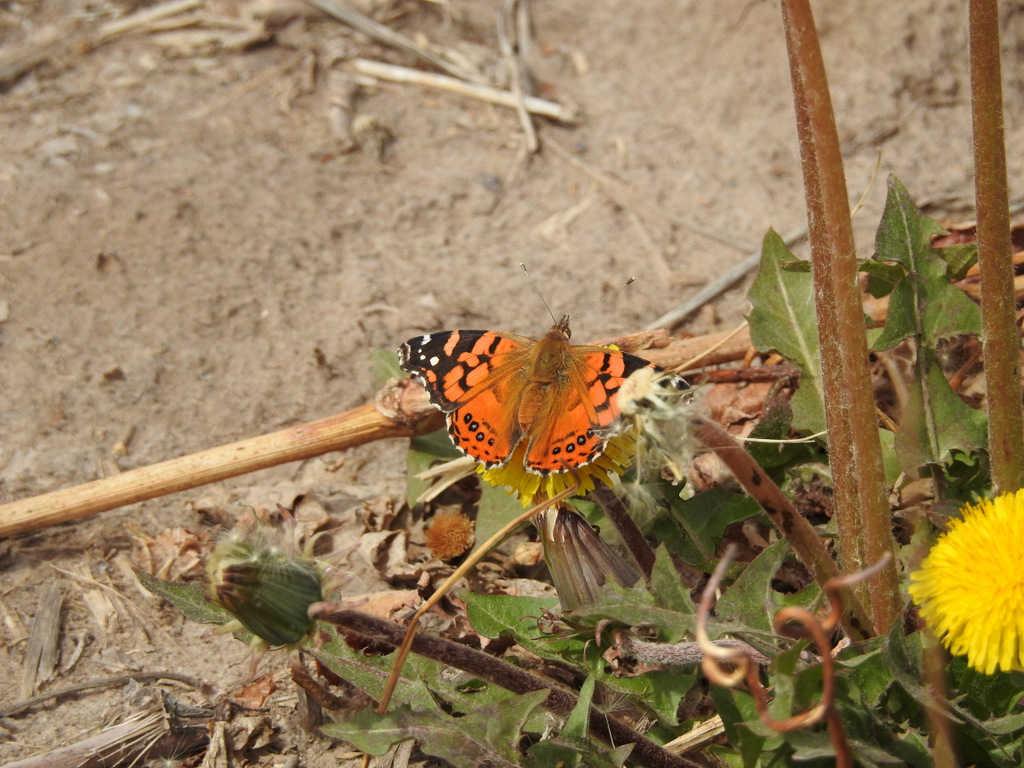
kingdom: Animalia
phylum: Arthropoda
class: Insecta
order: Lepidoptera
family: Nymphalidae
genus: Vanessa
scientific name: Vanessa carye
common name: Subtropical lady
